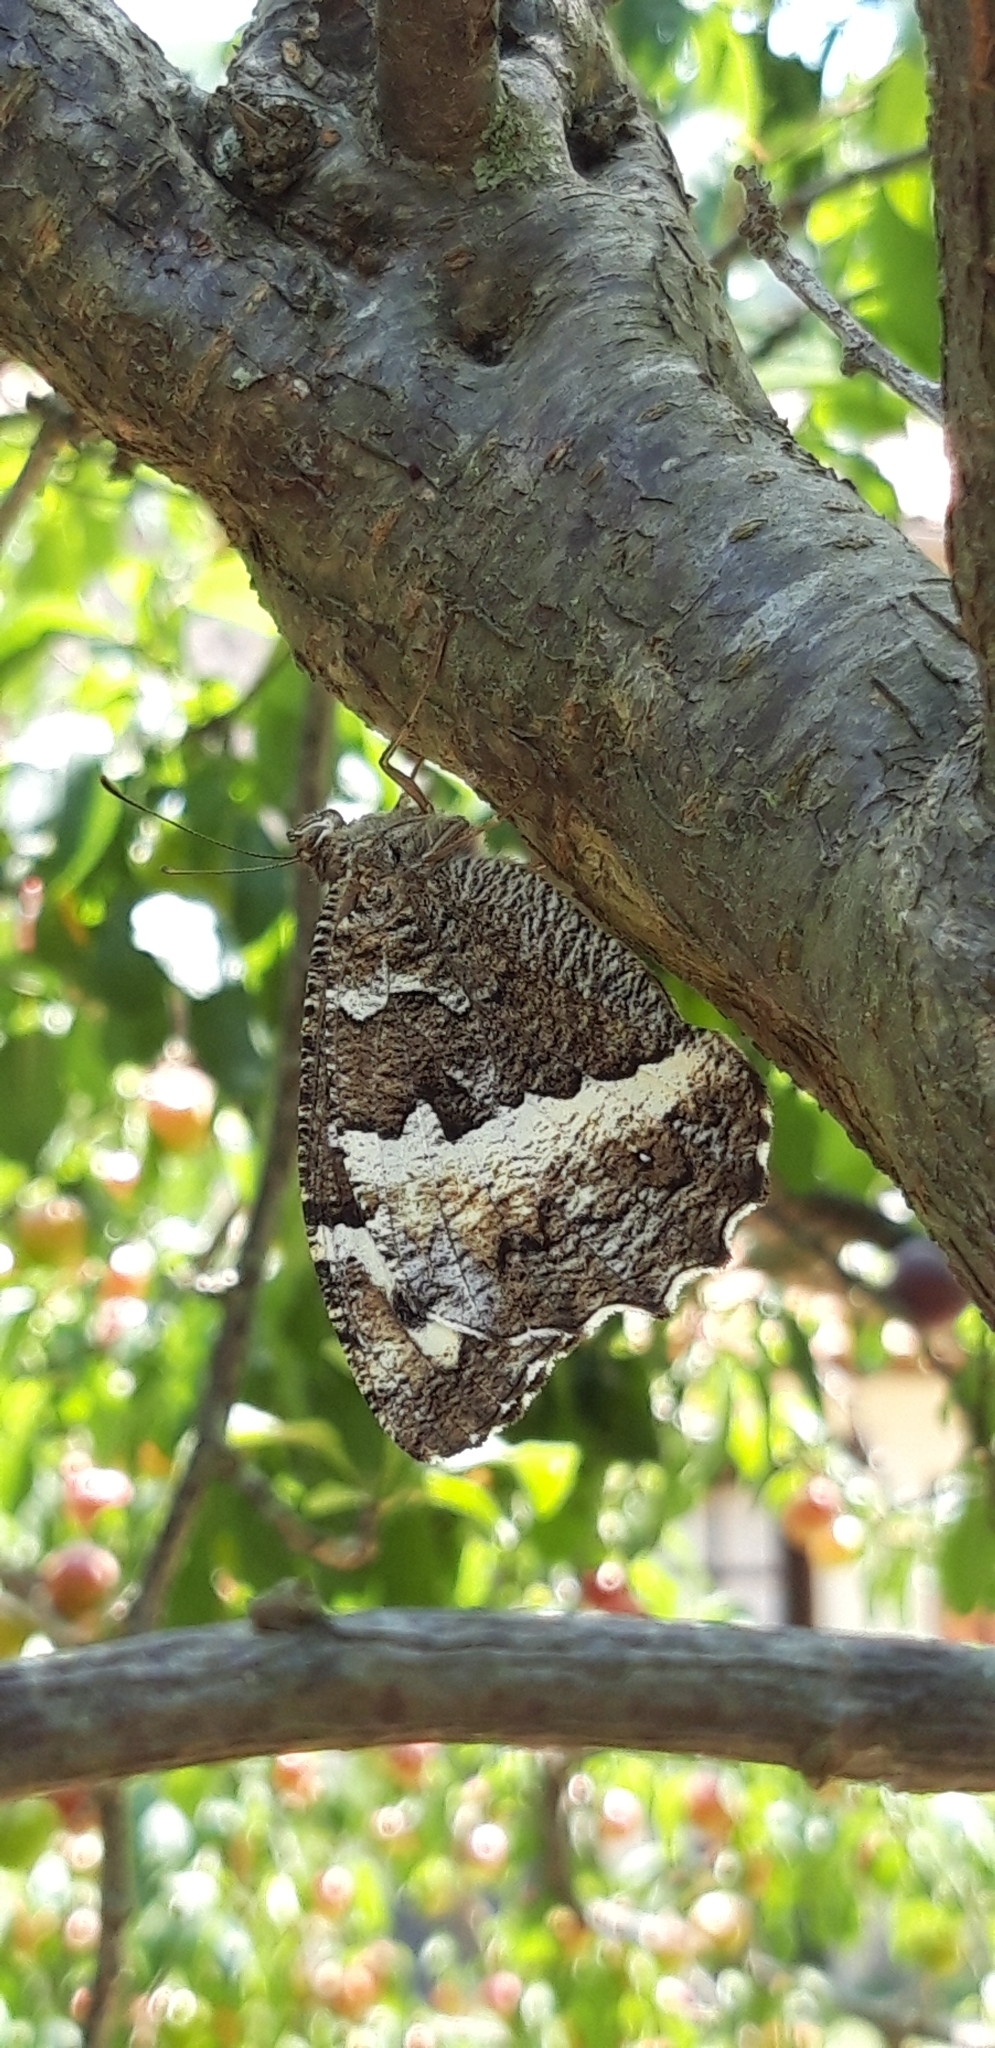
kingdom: Animalia
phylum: Arthropoda
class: Insecta
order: Lepidoptera
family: Lycaenidae
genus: Loweia
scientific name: Loweia tityrus
